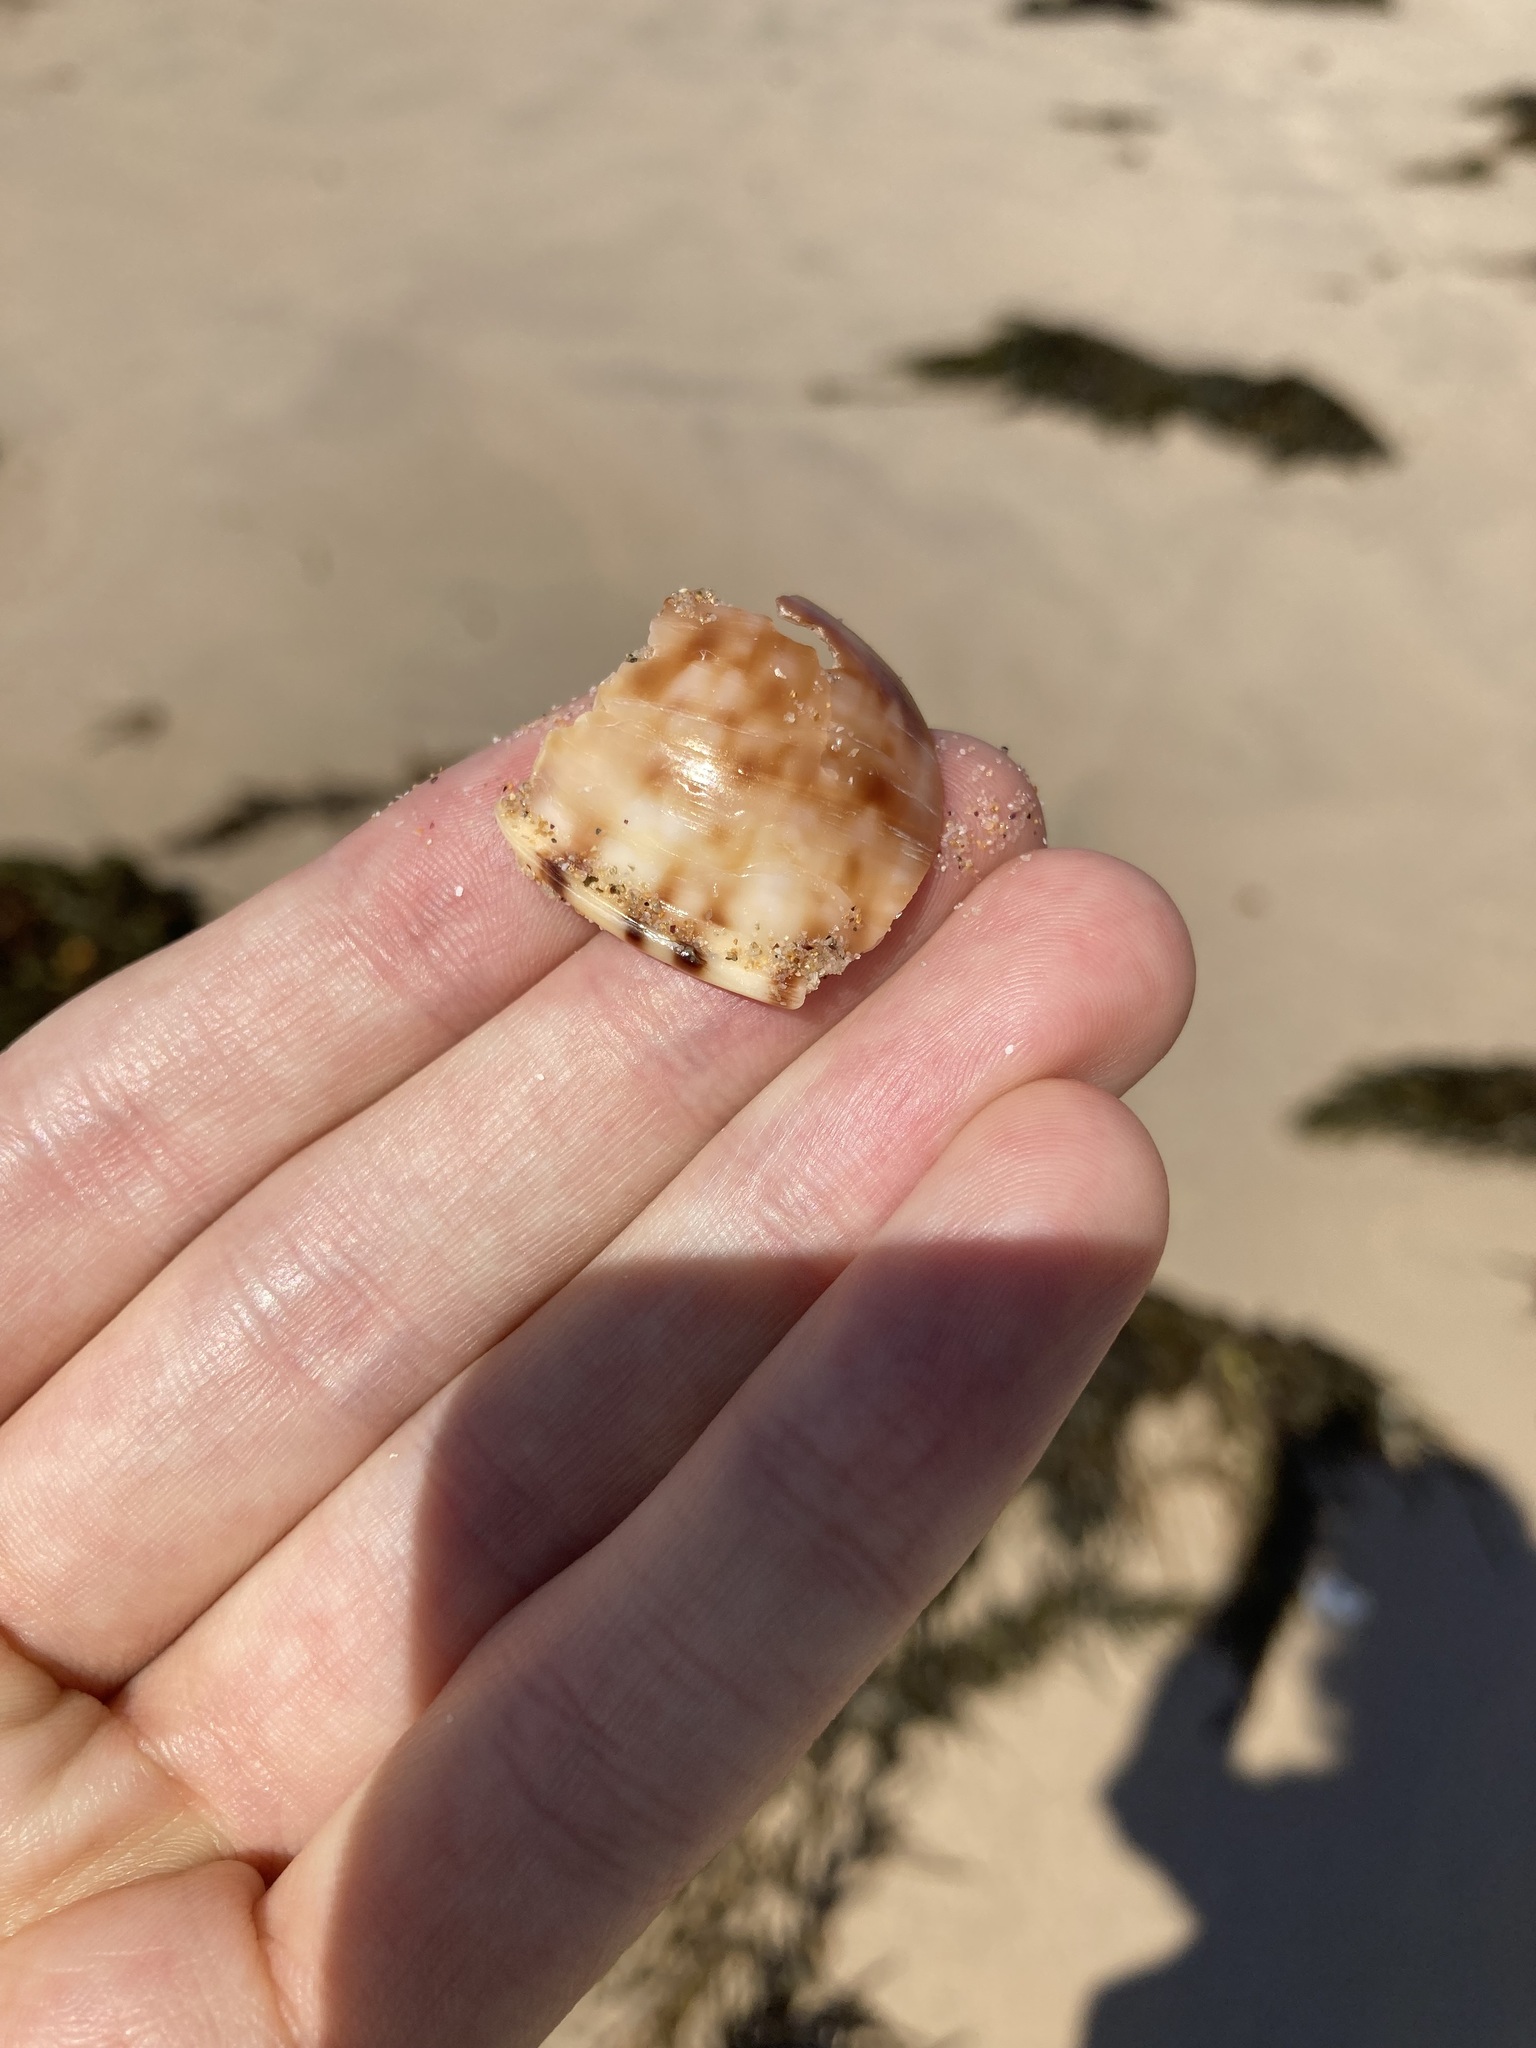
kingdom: Animalia
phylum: Mollusca
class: Gastropoda
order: Littorinimorpha
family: Cassidae
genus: Semicassis
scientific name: Semicassis labiata
